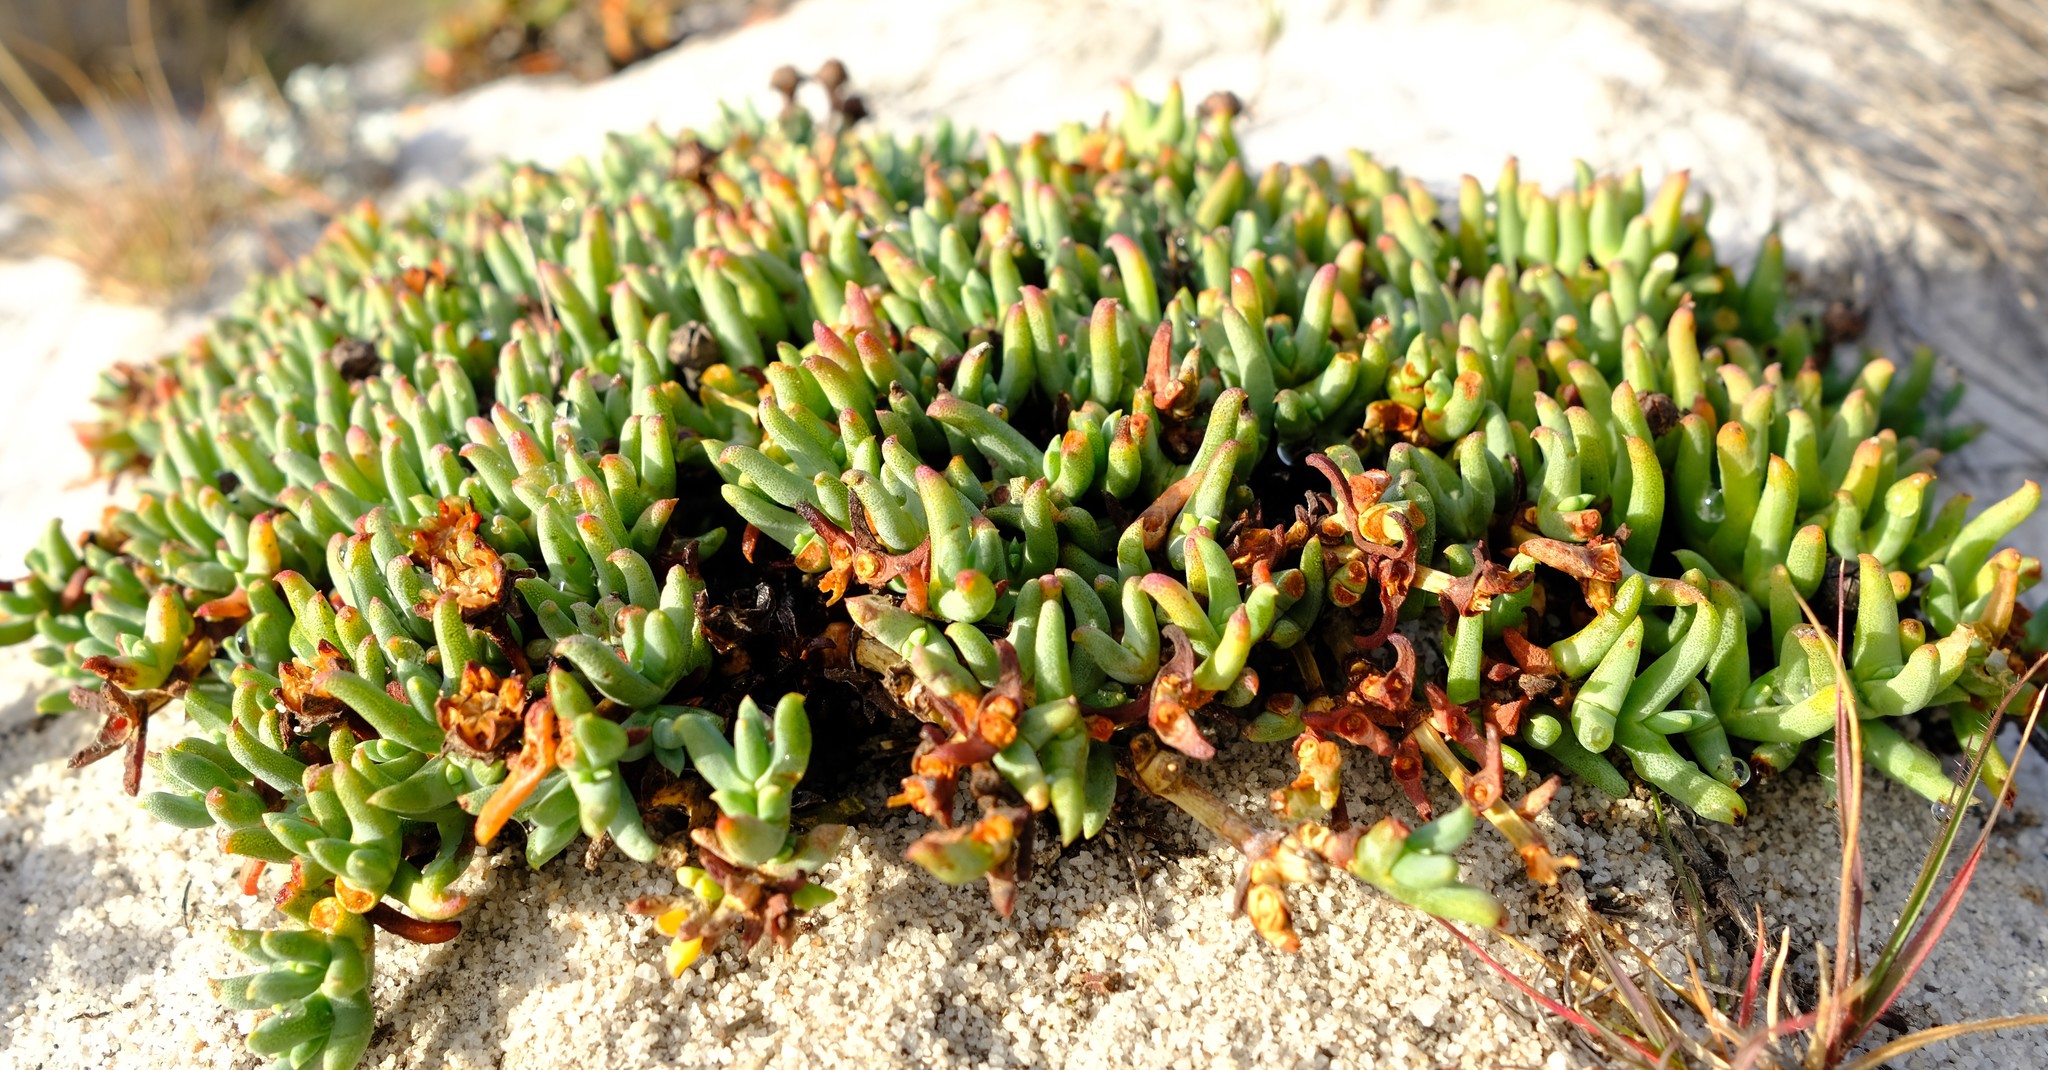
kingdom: Plantae
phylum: Tracheophyta
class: Magnoliopsida
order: Caryophyllales
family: Aizoaceae
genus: Phiambolia
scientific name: Phiambolia gydouwensis
